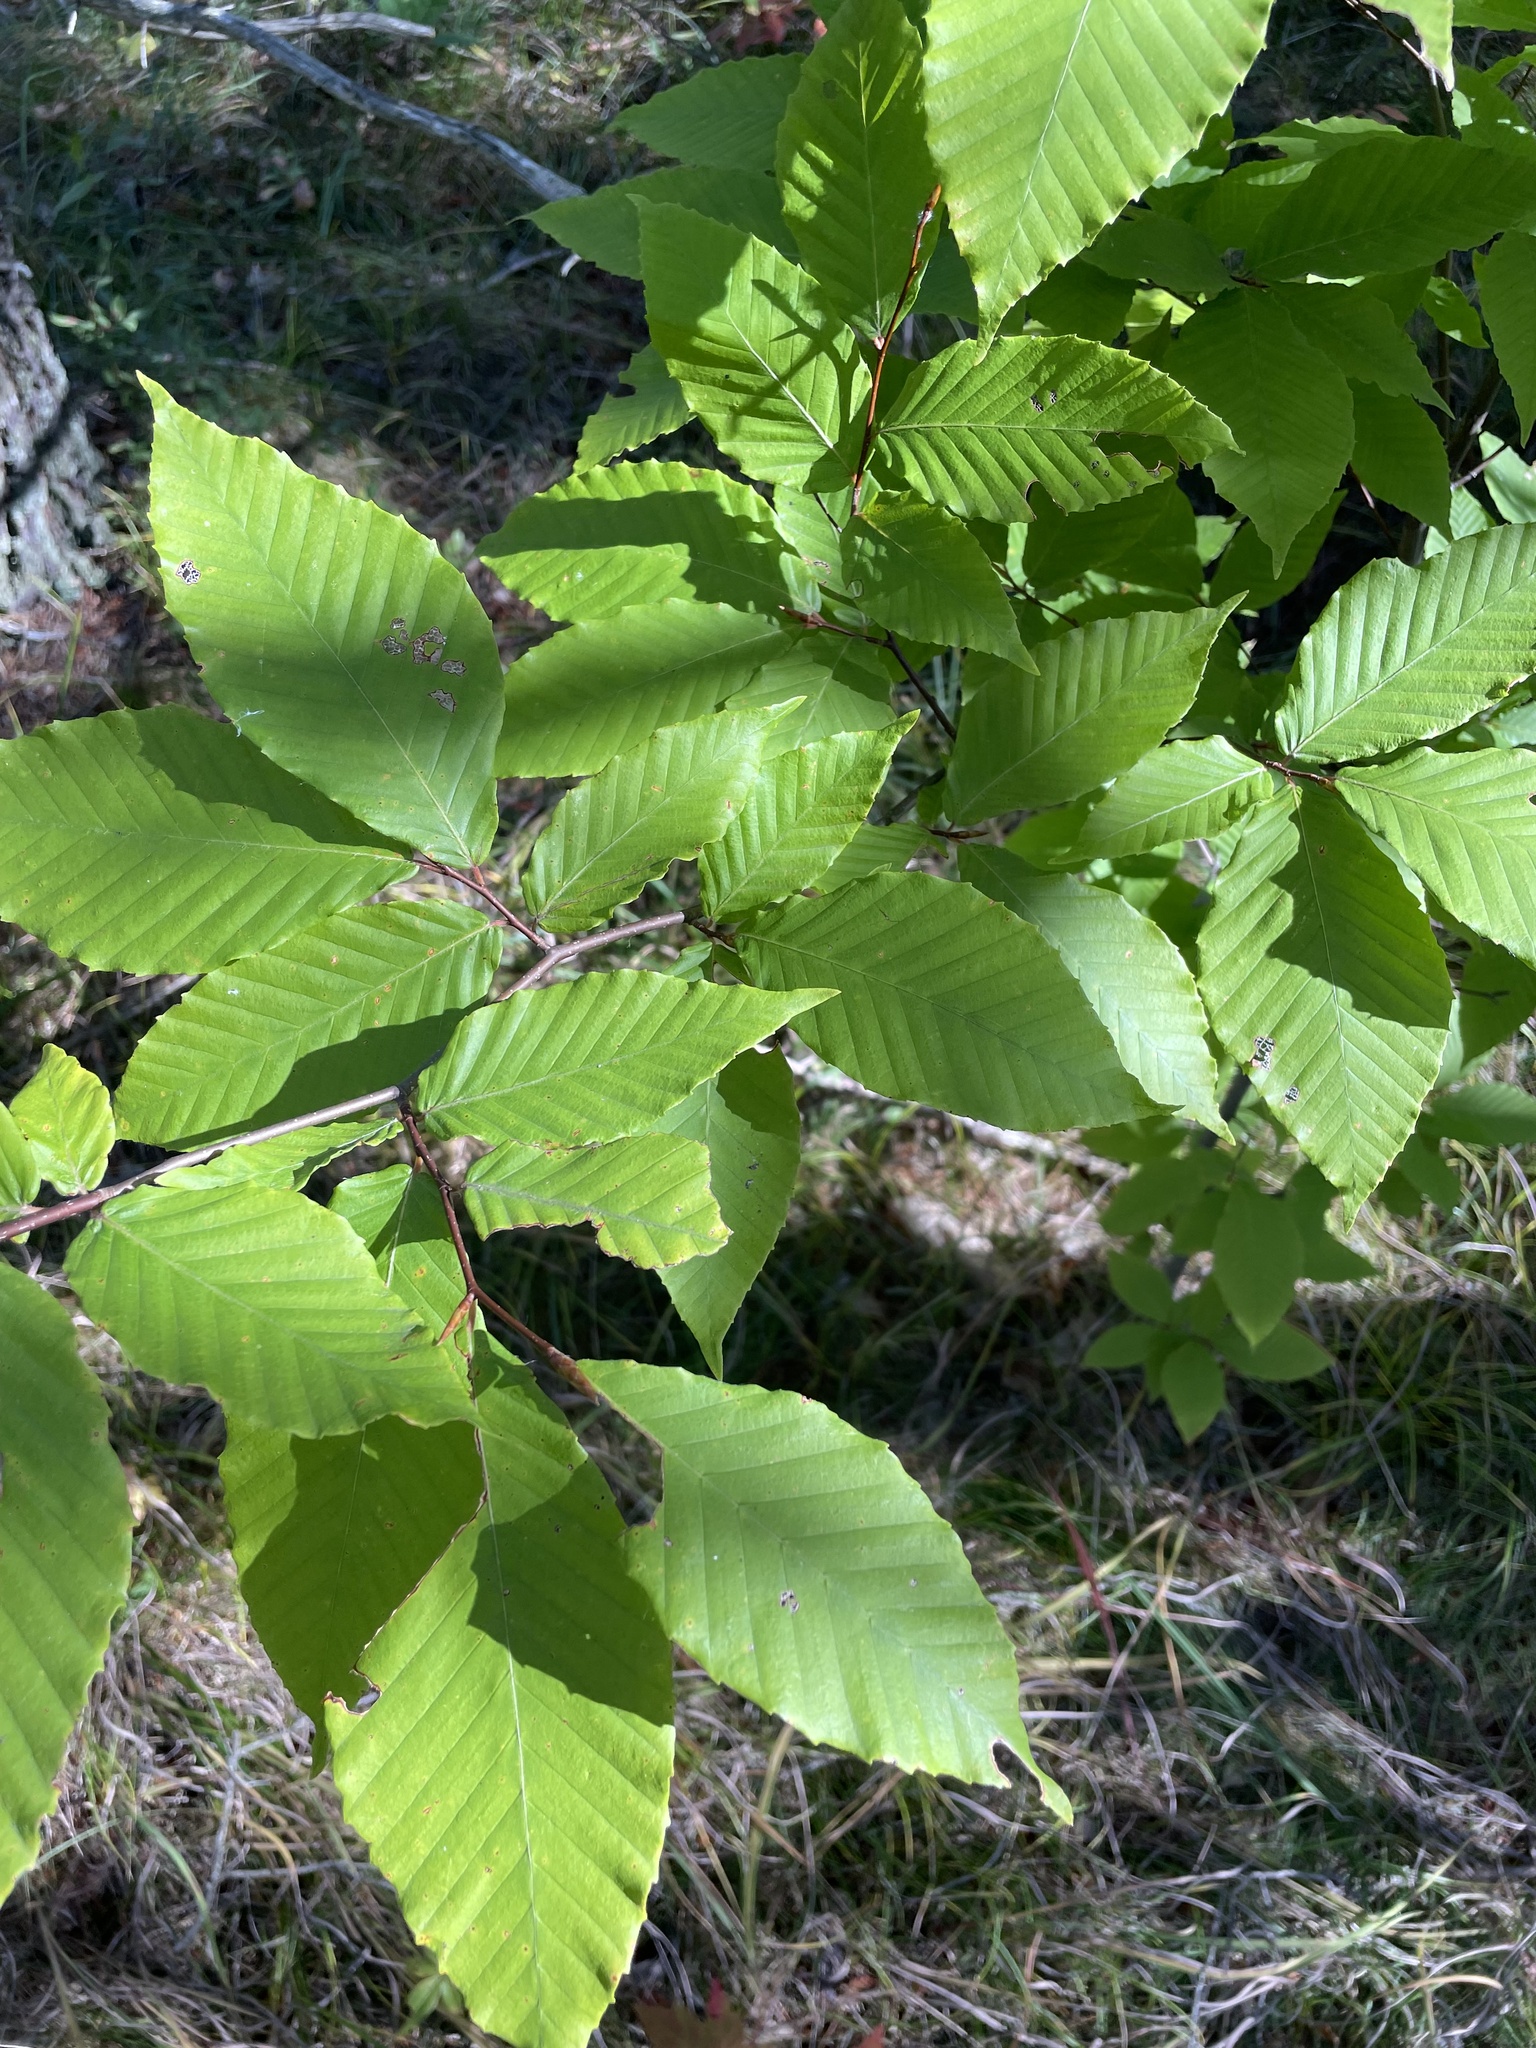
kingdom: Plantae
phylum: Tracheophyta
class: Magnoliopsida
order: Fagales
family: Fagaceae
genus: Fagus
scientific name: Fagus grandifolia
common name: American beech
